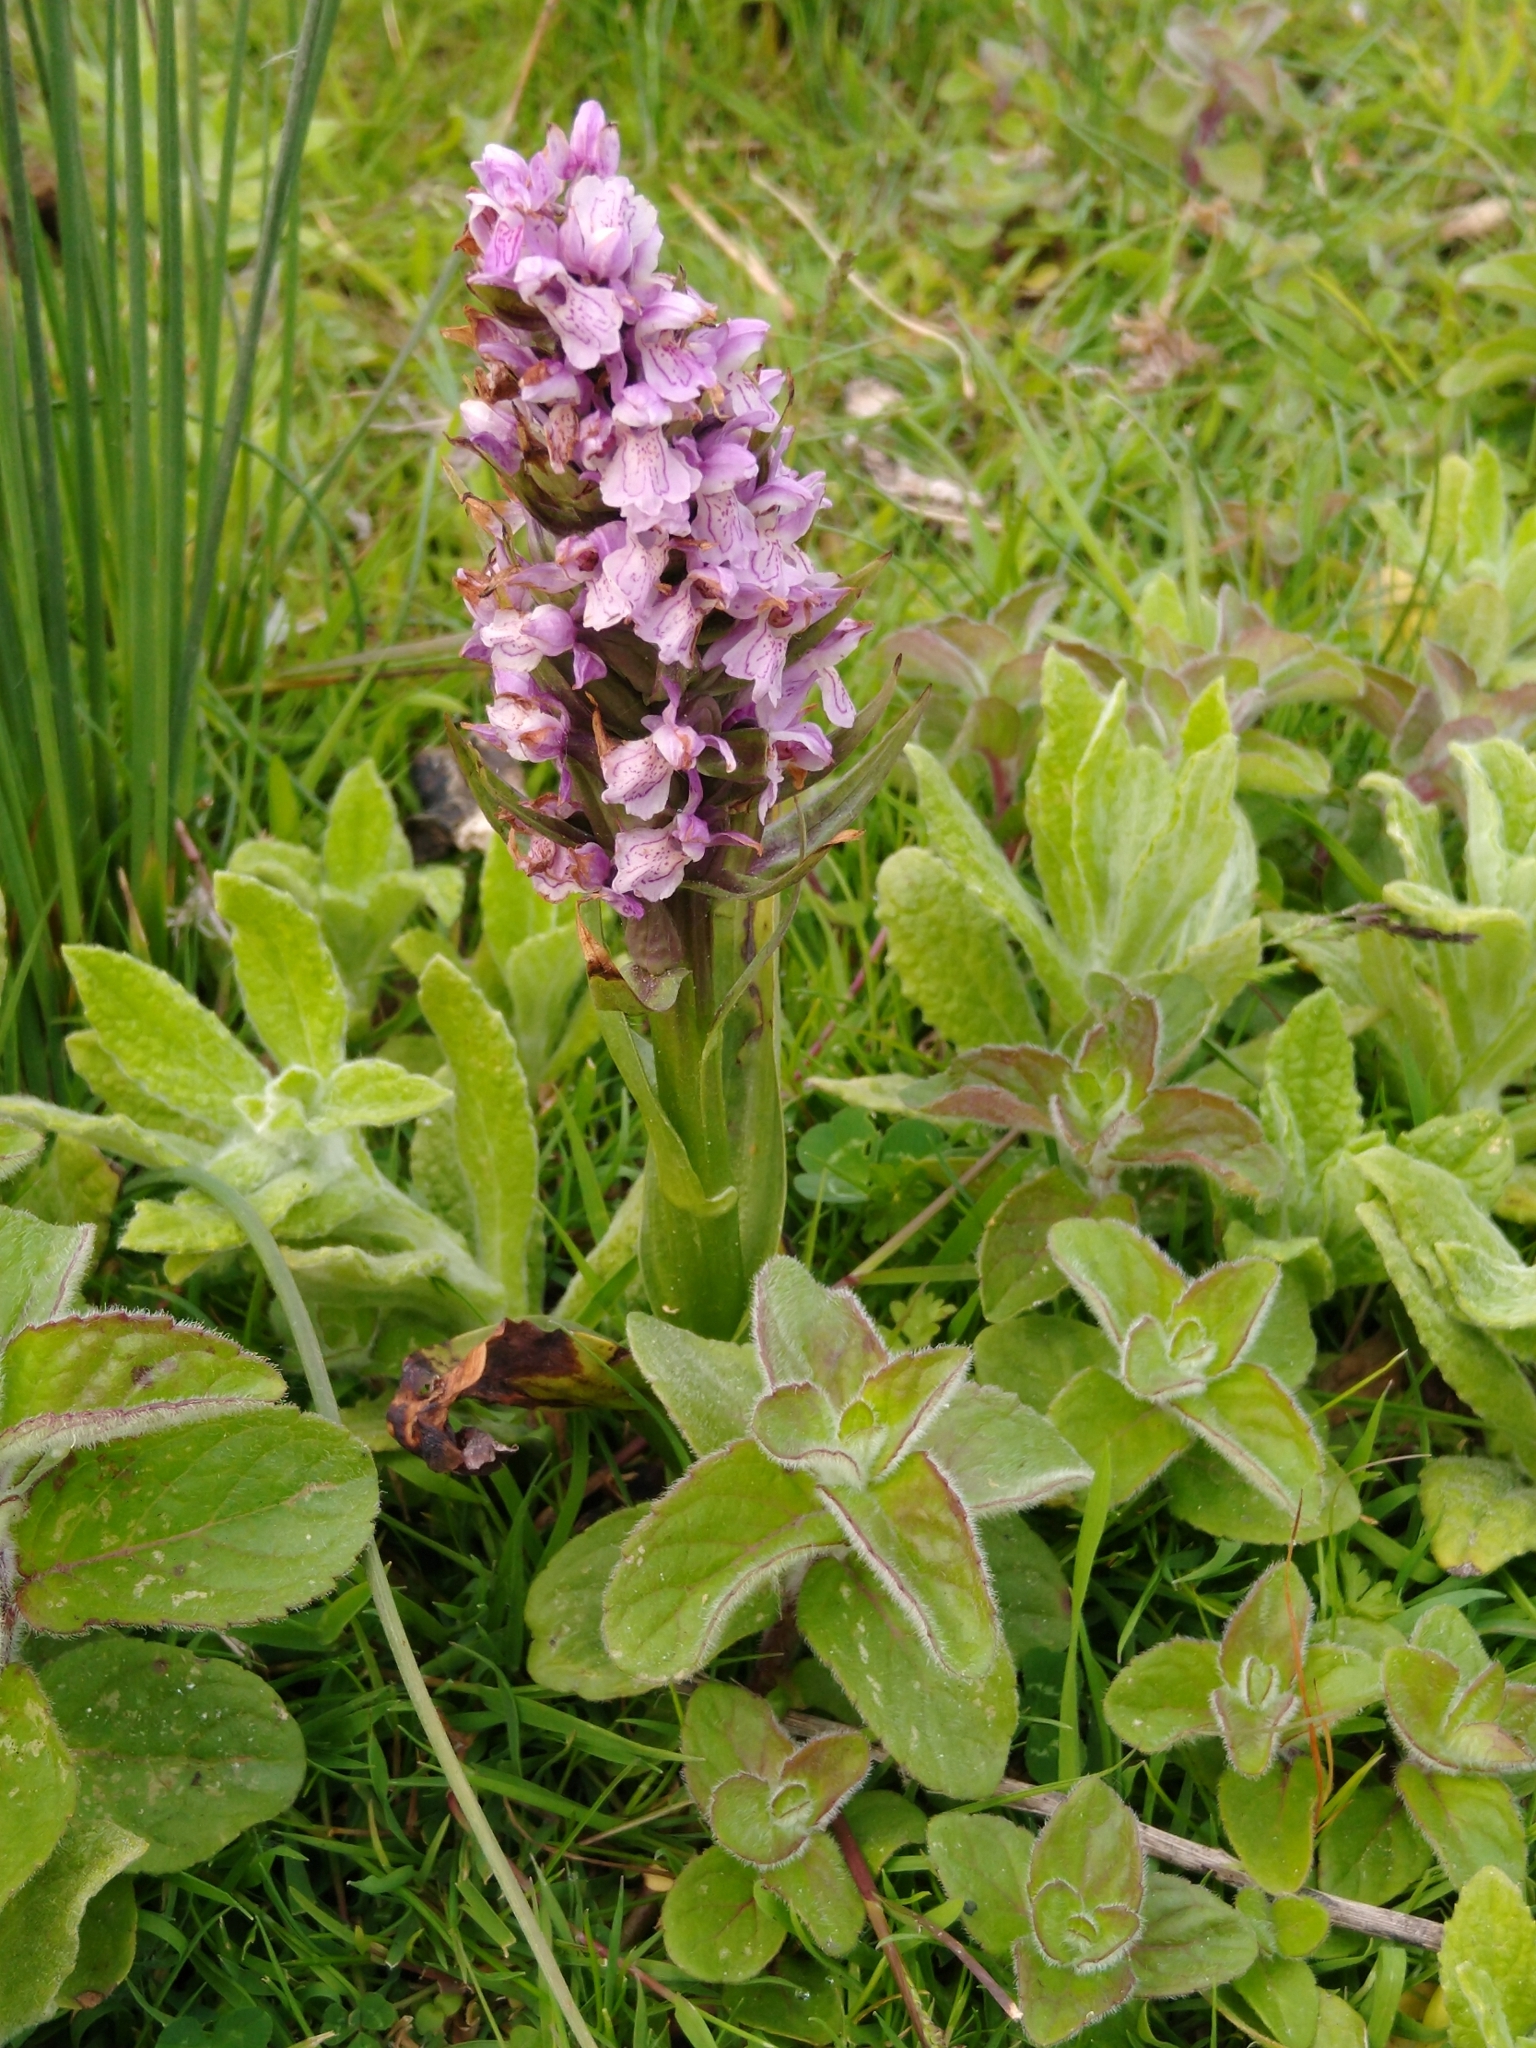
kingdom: Plantae
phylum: Tracheophyta
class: Liliopsida
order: Asparagales
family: Orchidaceae
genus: Dactylorhiza
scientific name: Dactylorhiza majalis
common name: Marsh orchid
